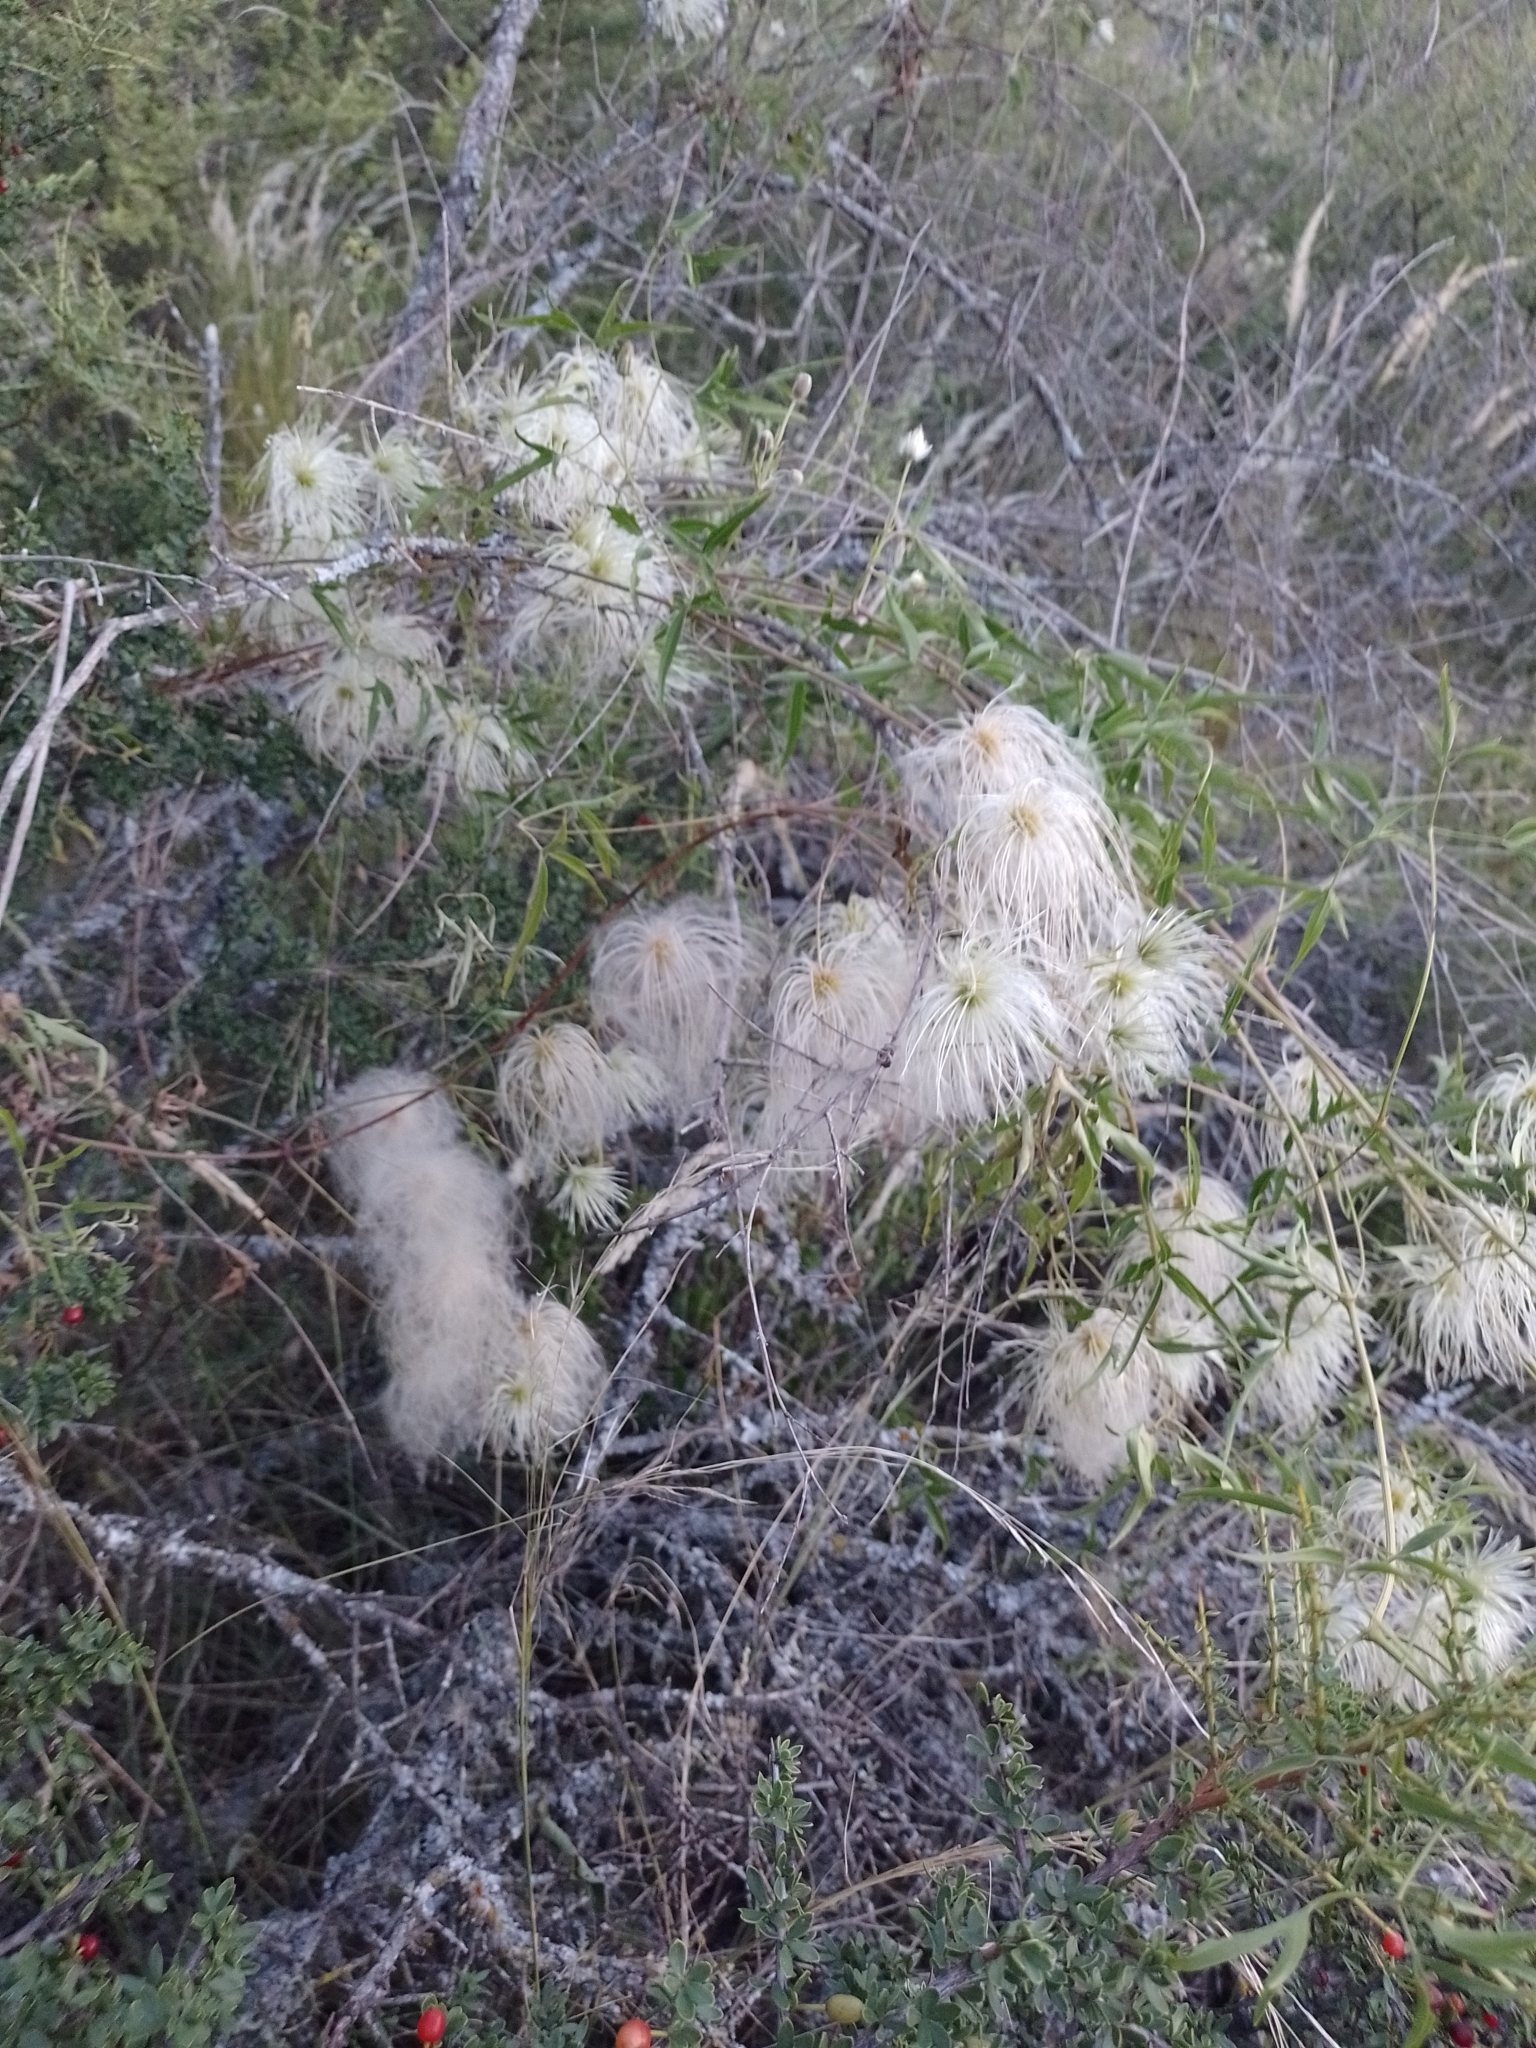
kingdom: Plantae
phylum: Tracheophyta
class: Magnoliopsida
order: Ranunculales
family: Ranunculaceae
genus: Clematis
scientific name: Clematis montevidensis
